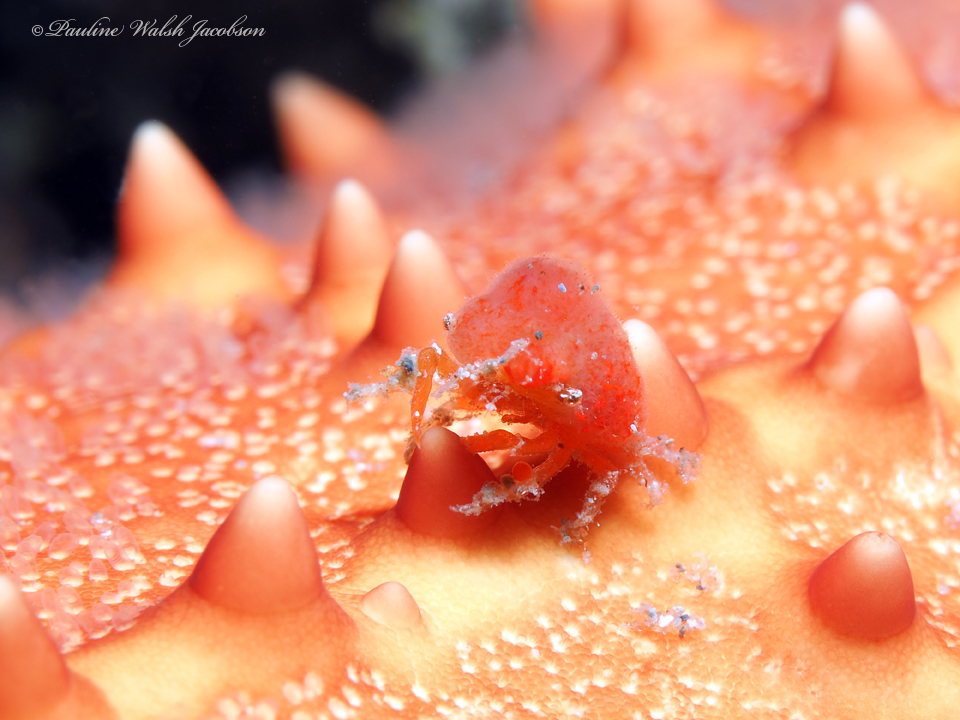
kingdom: Animalia
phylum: Arthropoda
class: Malacostraca
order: Decapoda
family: Epialtidae
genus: Macrocoeloma
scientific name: Macrocoeloma trispinosum
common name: Grass crab
